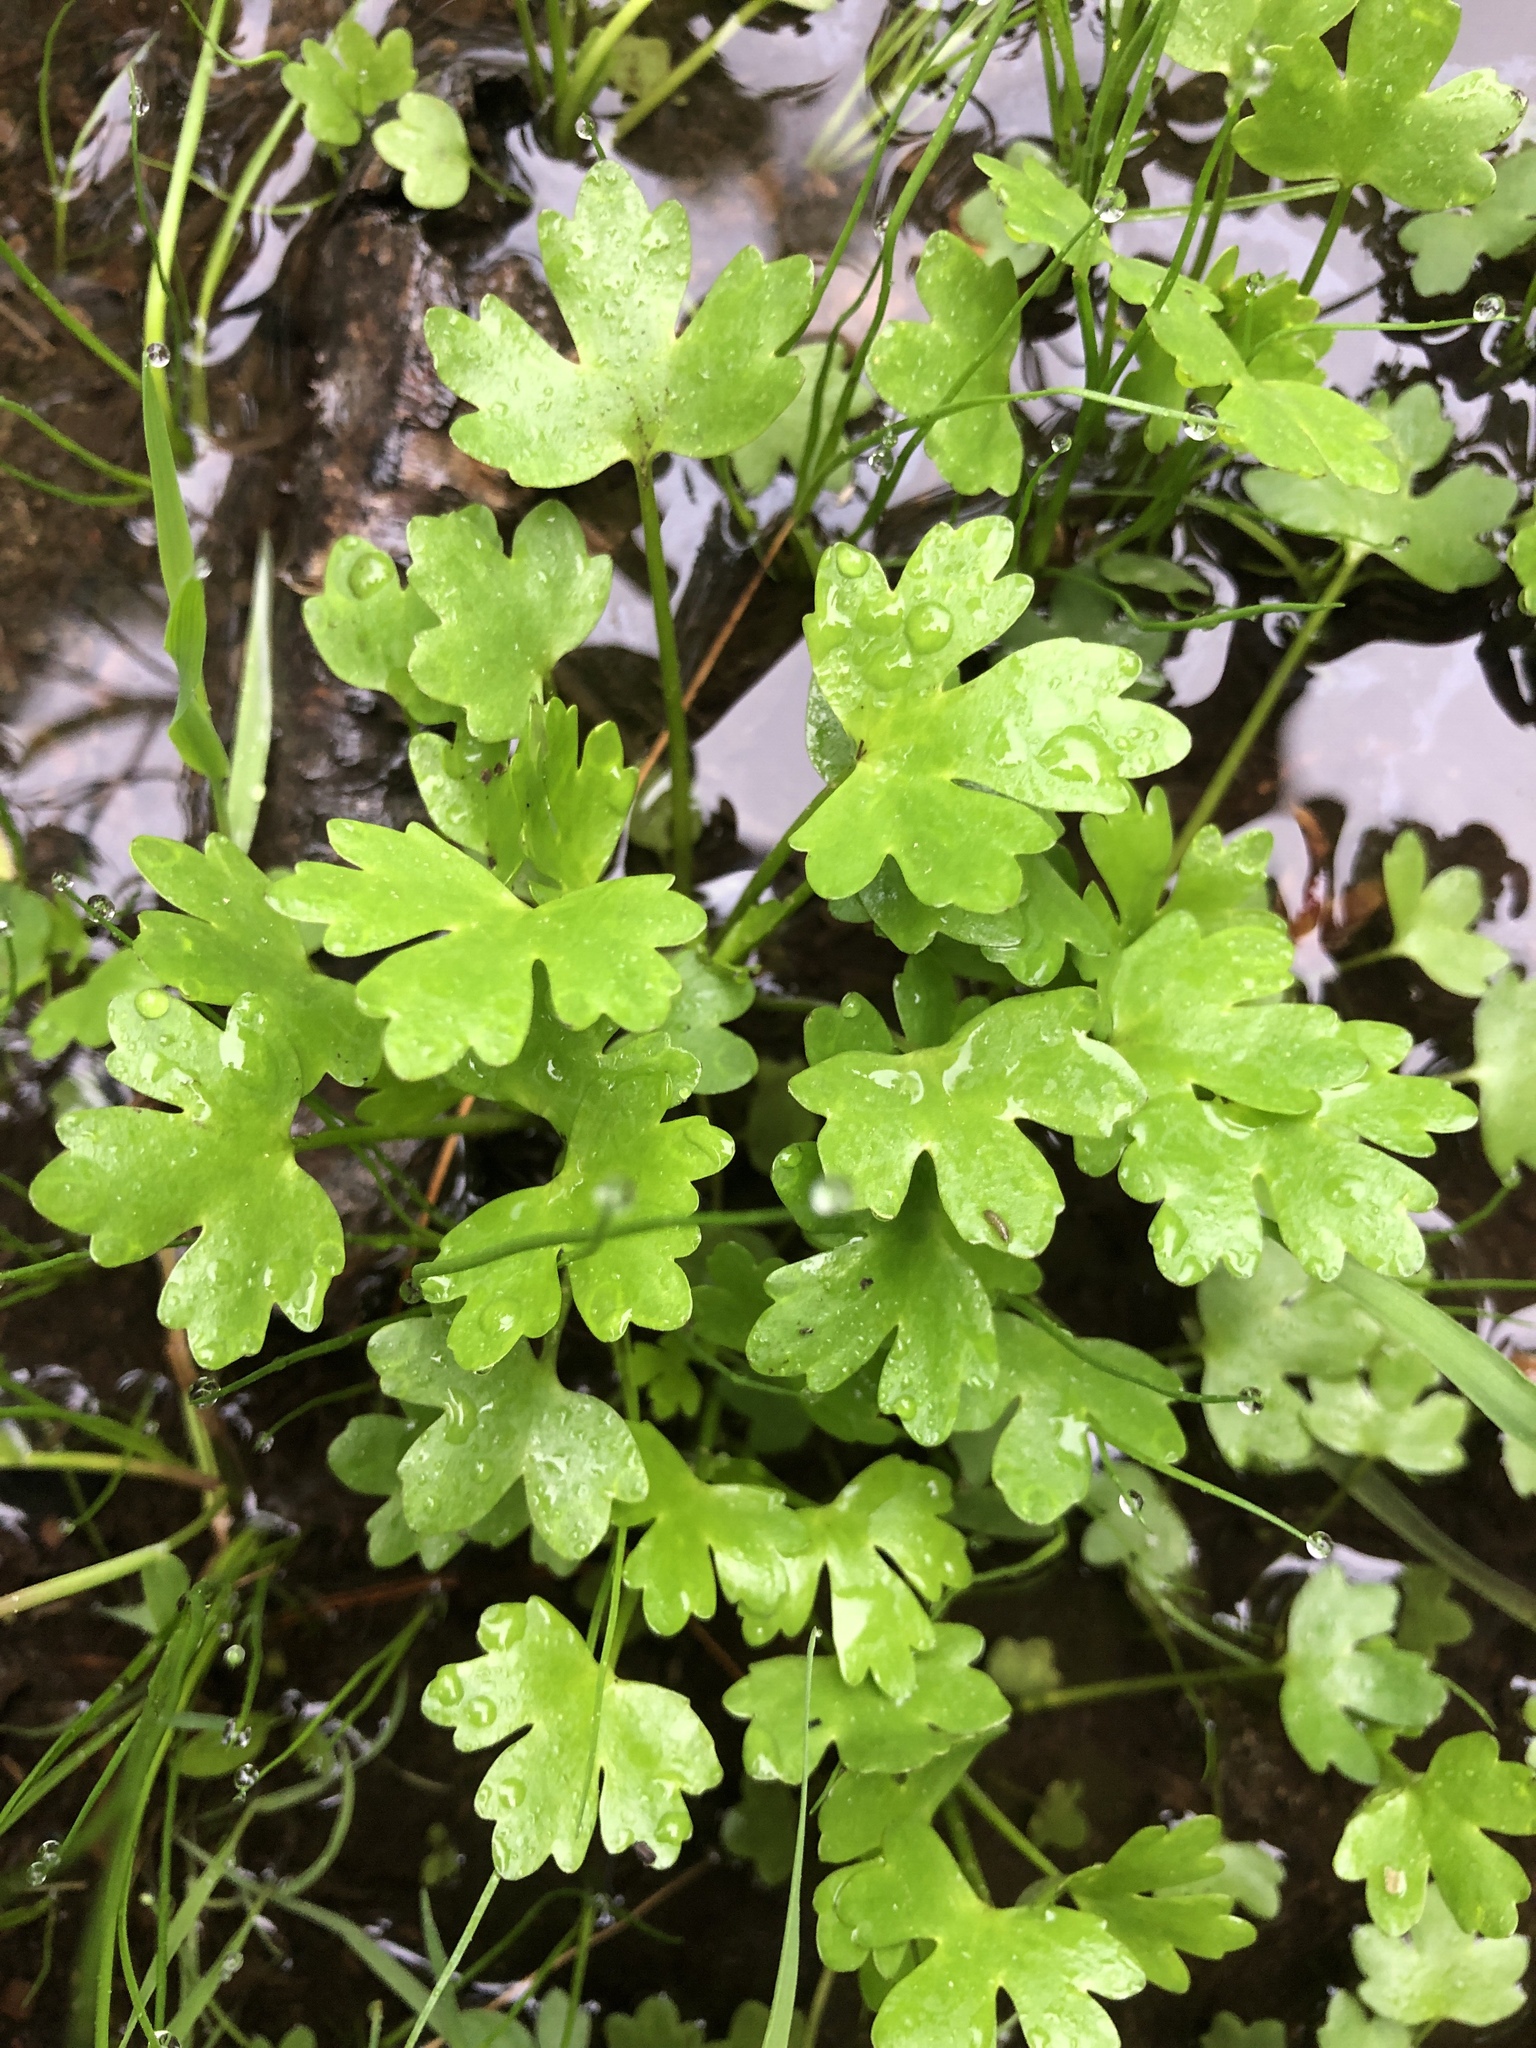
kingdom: Plantae
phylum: Tracheophyta
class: Magnoliopsida
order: Ranunculales
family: Ranunculaceae
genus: Ranunculus
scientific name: Ranunculus sceleratus
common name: Celery-leaved buttercup
